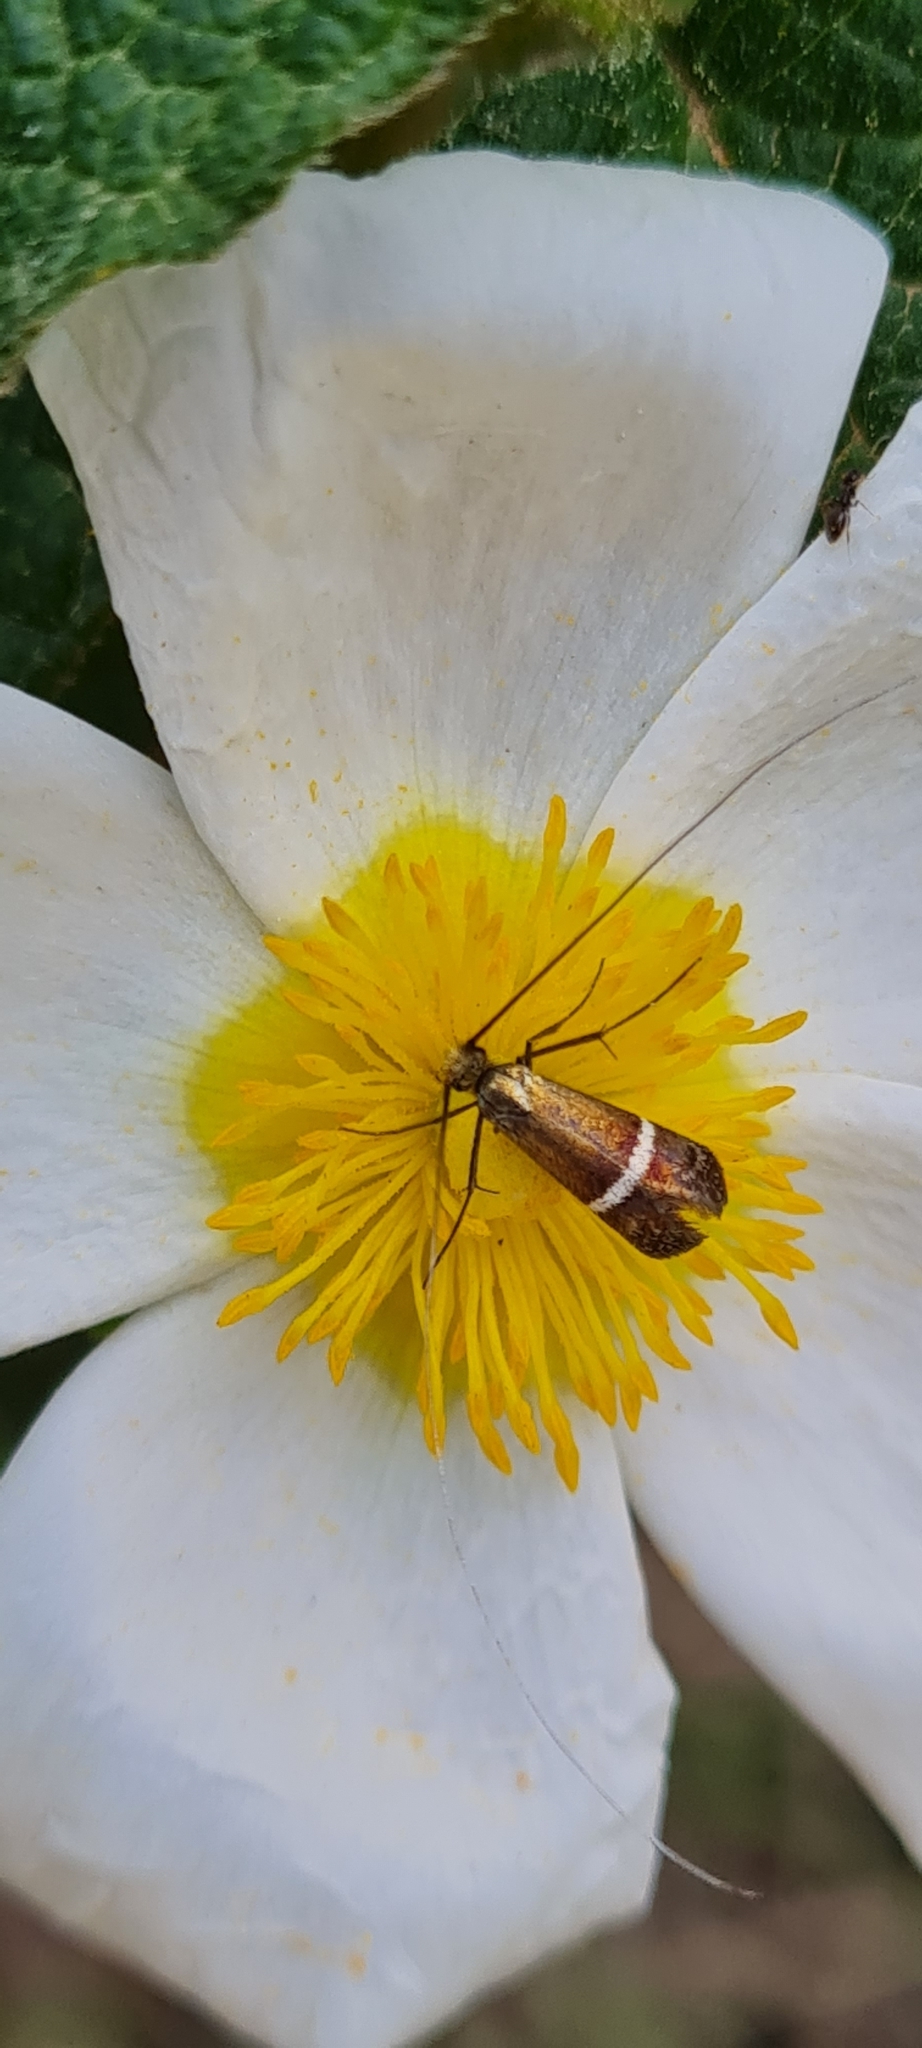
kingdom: Animalia
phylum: Arthropoda
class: Insecta
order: Lepidoptera
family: Adelidae
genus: Adela
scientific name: Adela australis
